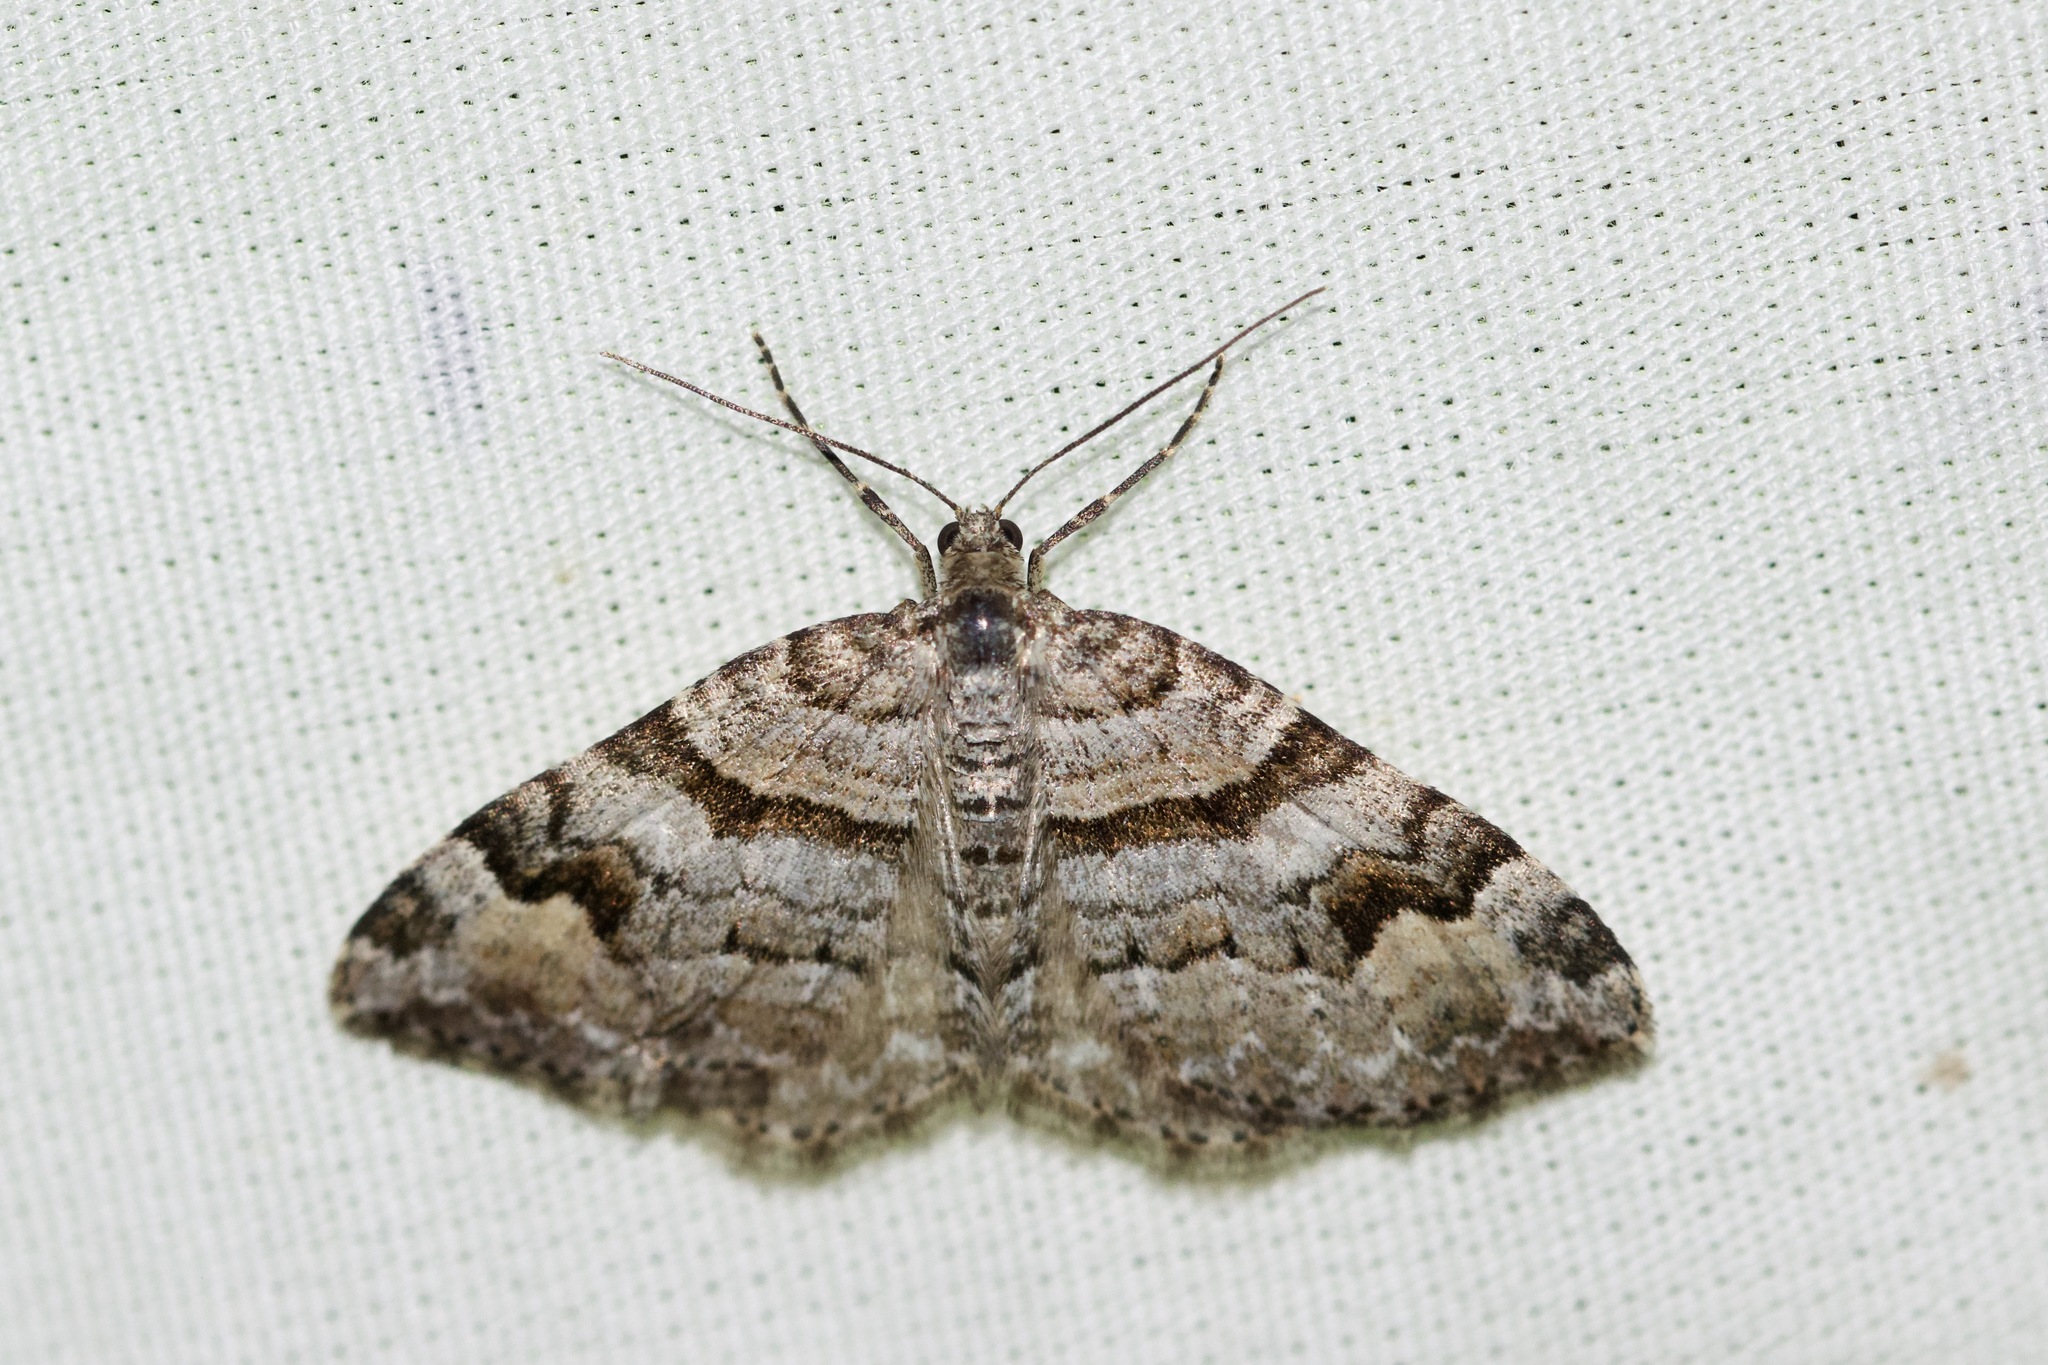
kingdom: Animalia
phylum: Arthropoda
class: Insecta
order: Lepidoptera
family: Geometridae
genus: Xanthorhoe
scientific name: Xanthorhoe abrasaria
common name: Northern carpet
